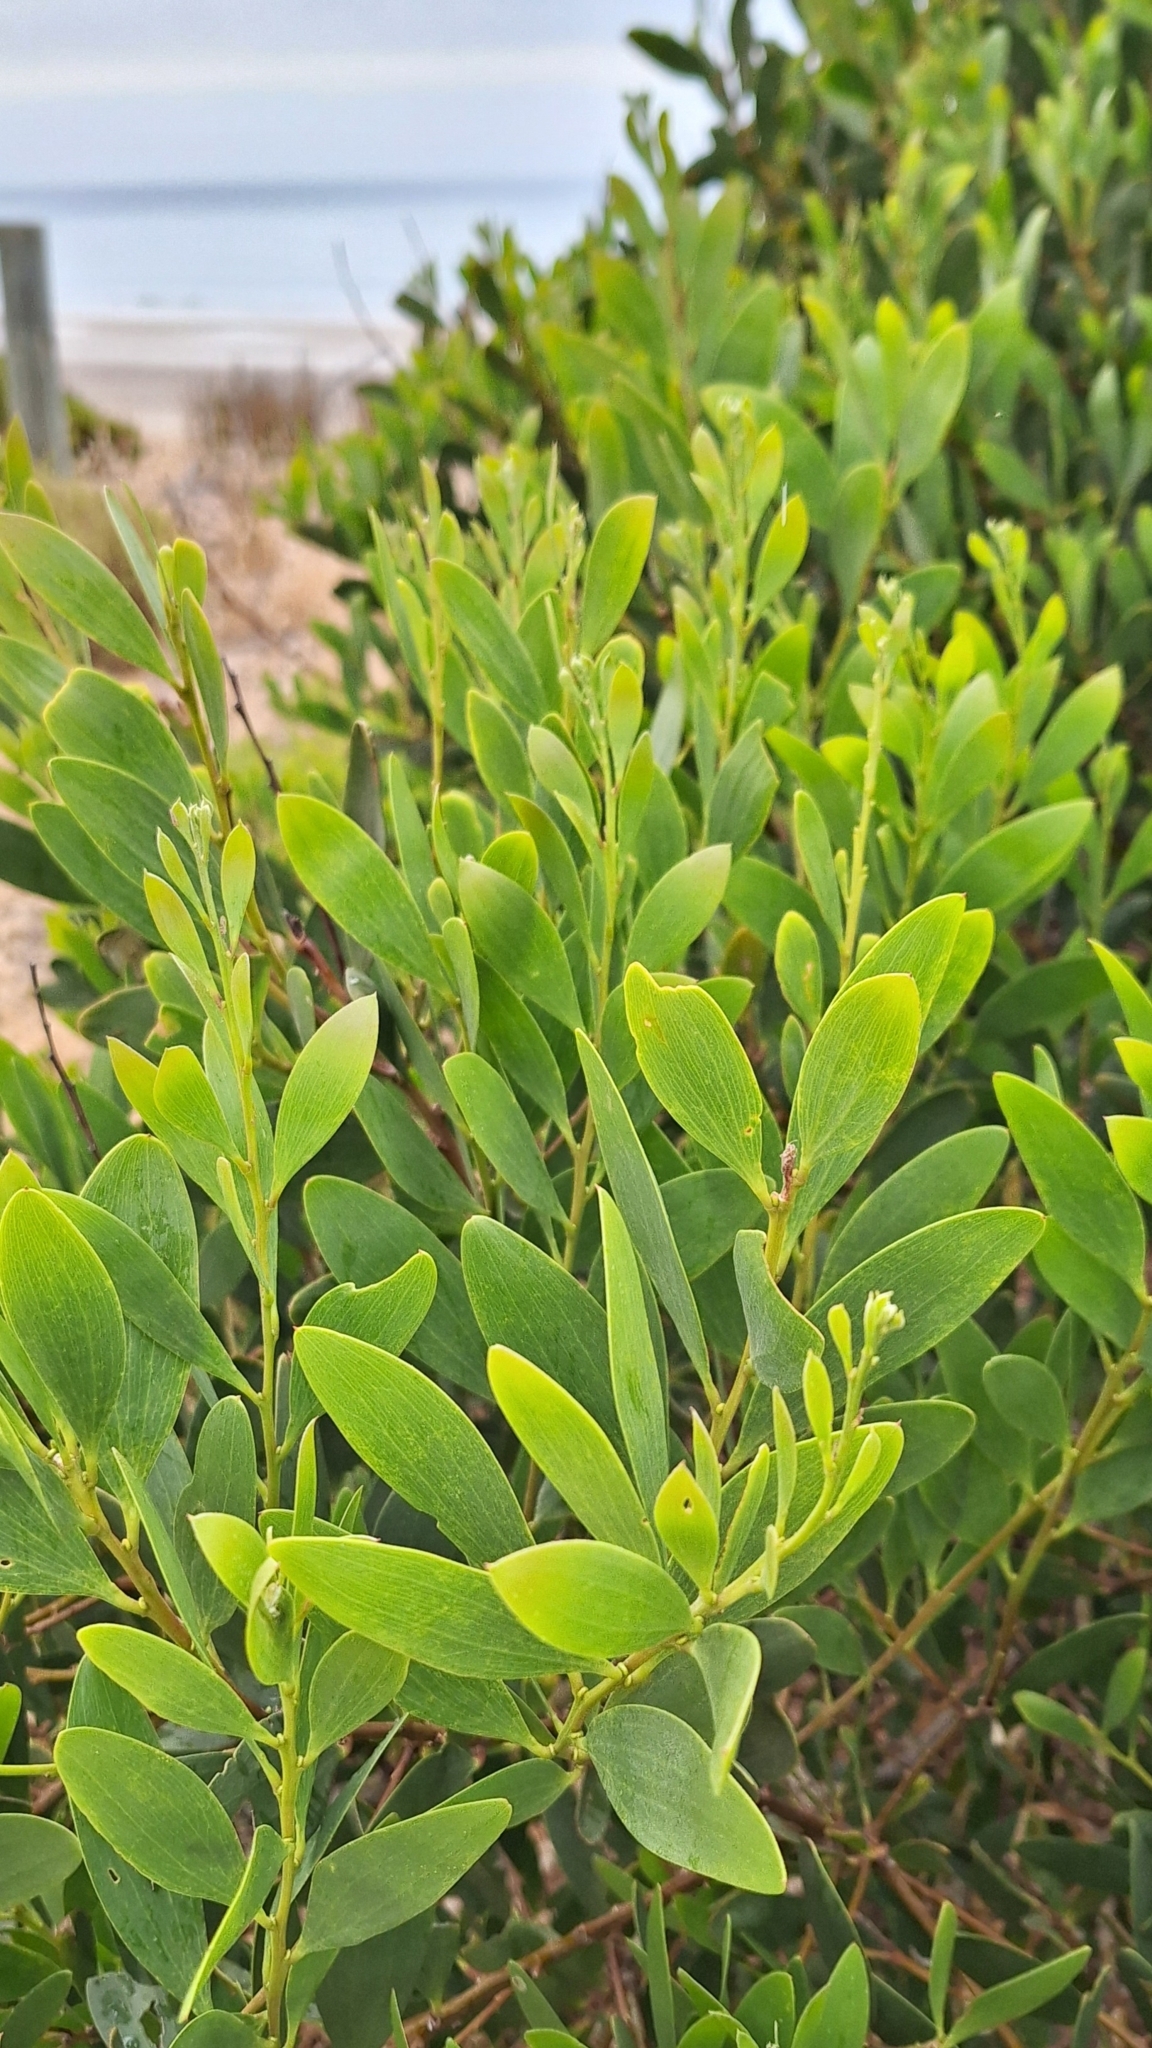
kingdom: Plantae
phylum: Tracheophyta
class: Magnoliopsida
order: Fabales
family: Fabaceae
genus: Acacia
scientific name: Acacia longifolia
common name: Sydney golden wattle
